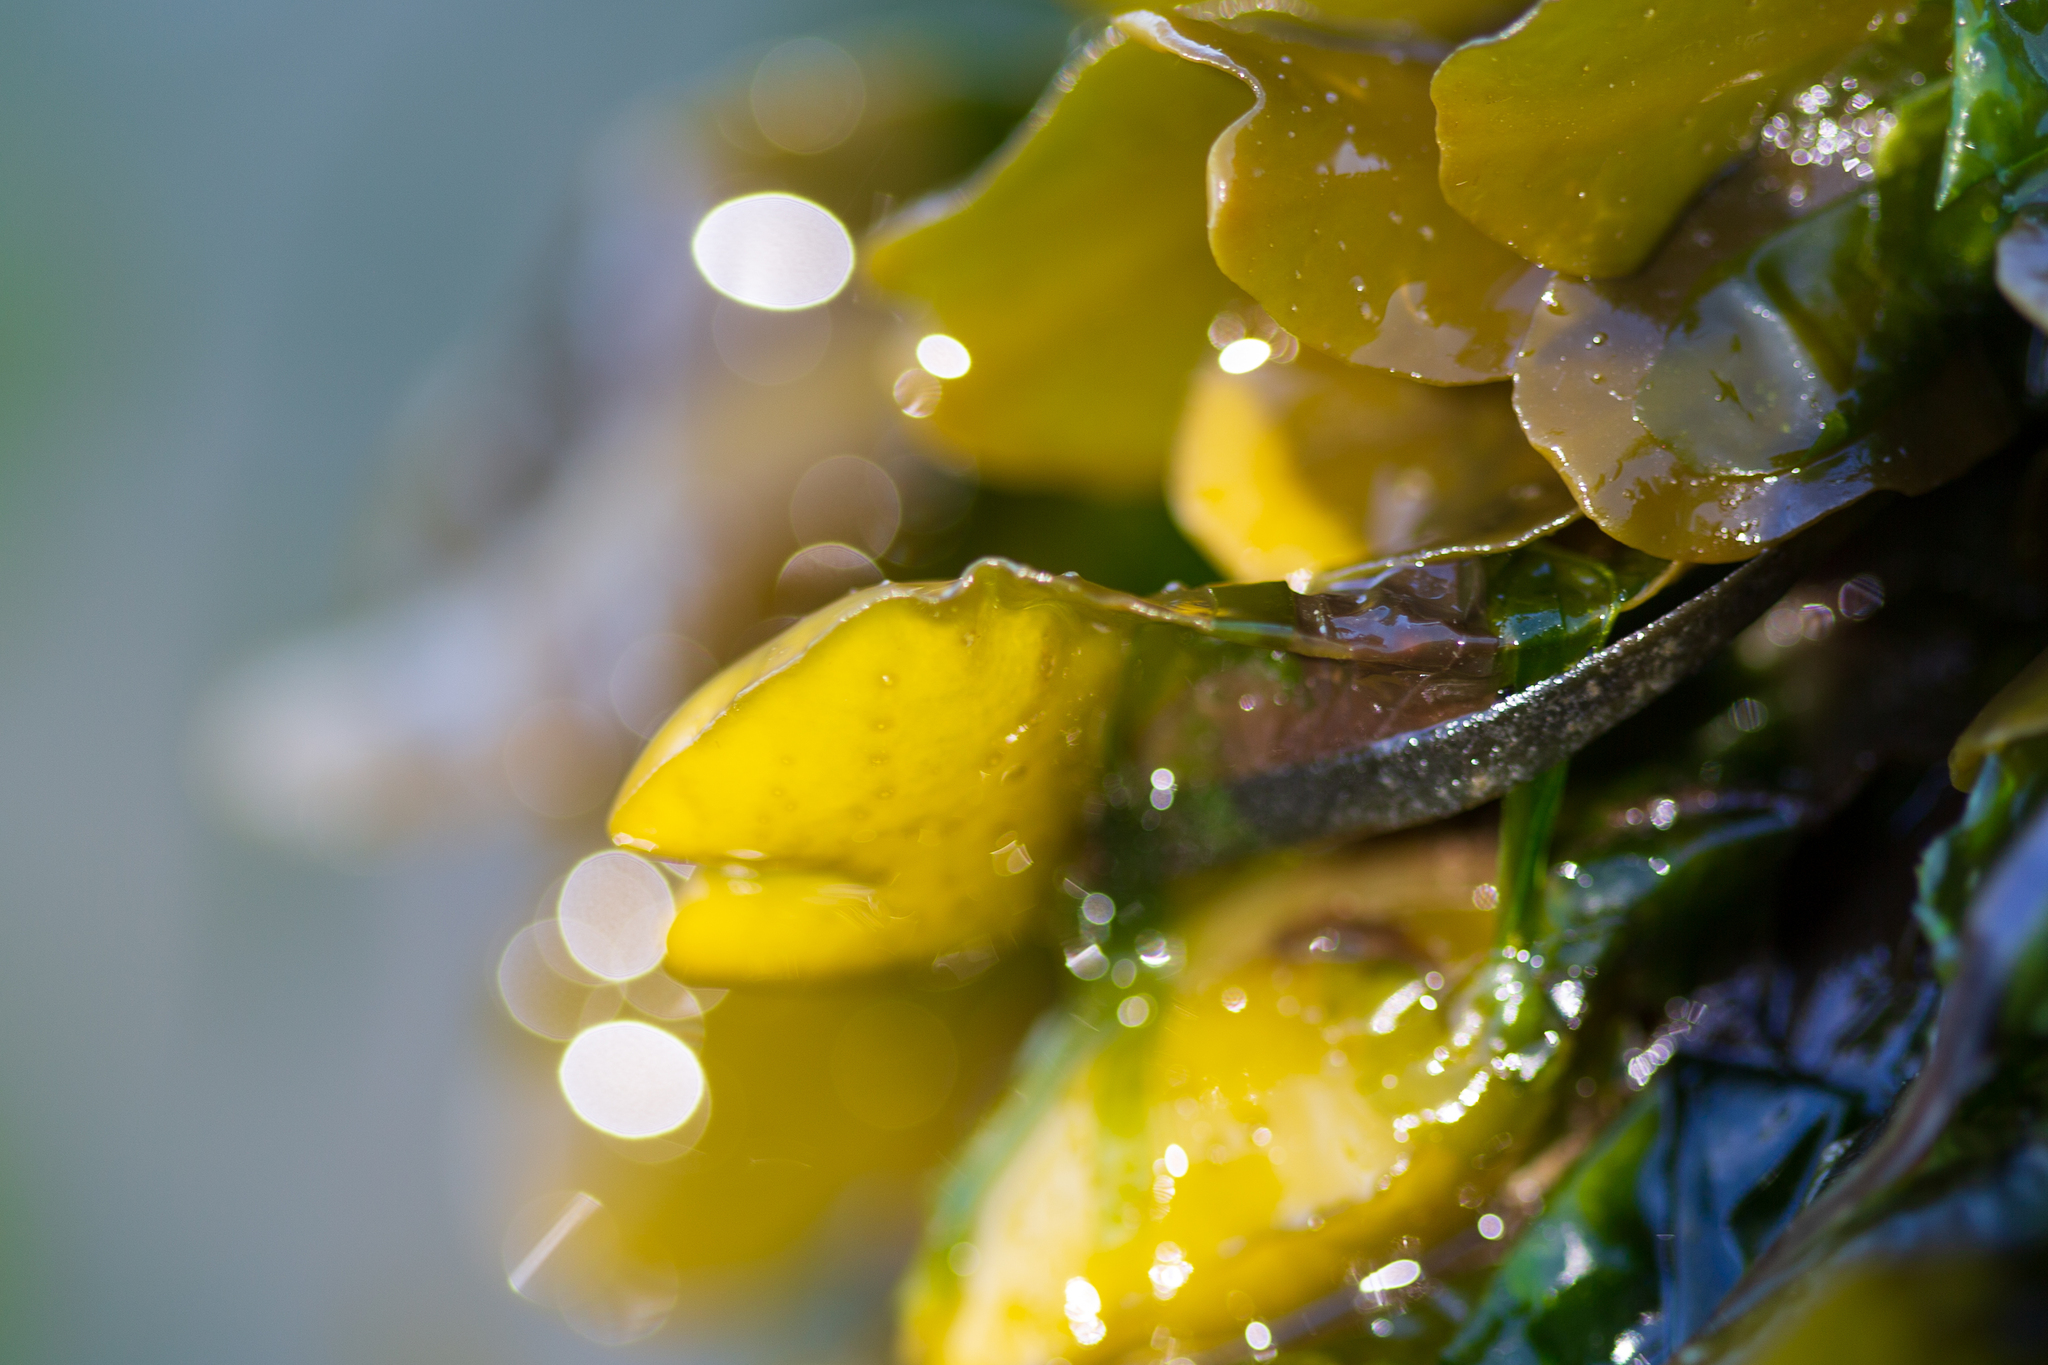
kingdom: Chromista
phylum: Ochrophyta
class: Phaeophyceae
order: Fucales
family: Fucaceae
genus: Fucus
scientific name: Fucus distichus
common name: Rockweed
